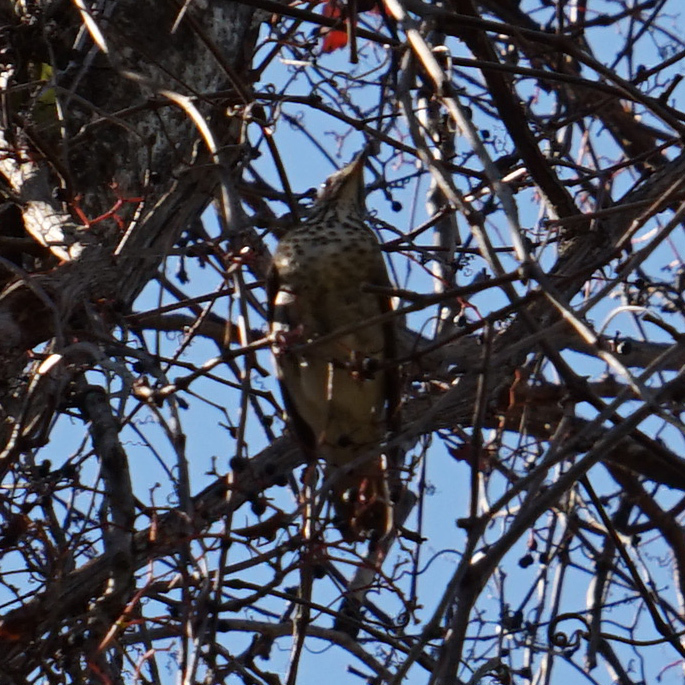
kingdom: Animalia
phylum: Chordata
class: Aves
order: Passeriformes
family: Turdidae
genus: Catharus
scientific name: Catharus guttatus
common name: Hermit thrush
